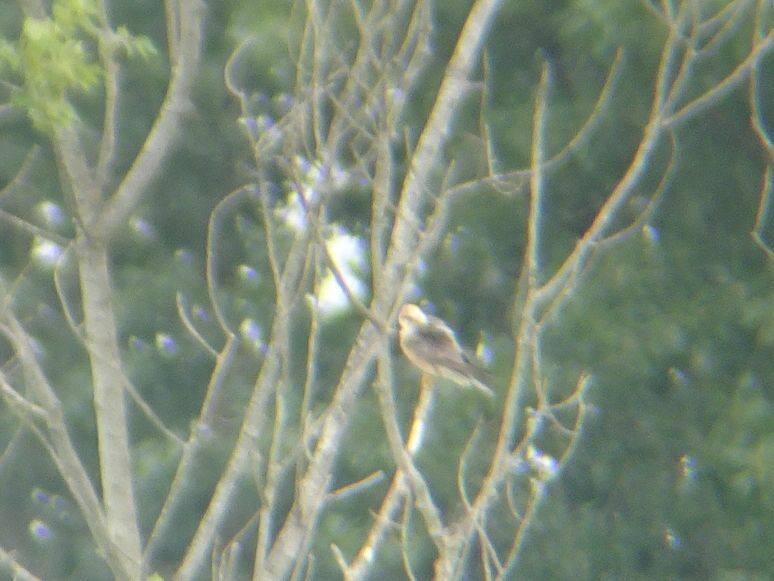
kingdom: Animalia
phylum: Chordata
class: Aves
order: Falconiformes
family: Falconidae
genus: Falco
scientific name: Falco vespertinus
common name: Red-footed falcon
